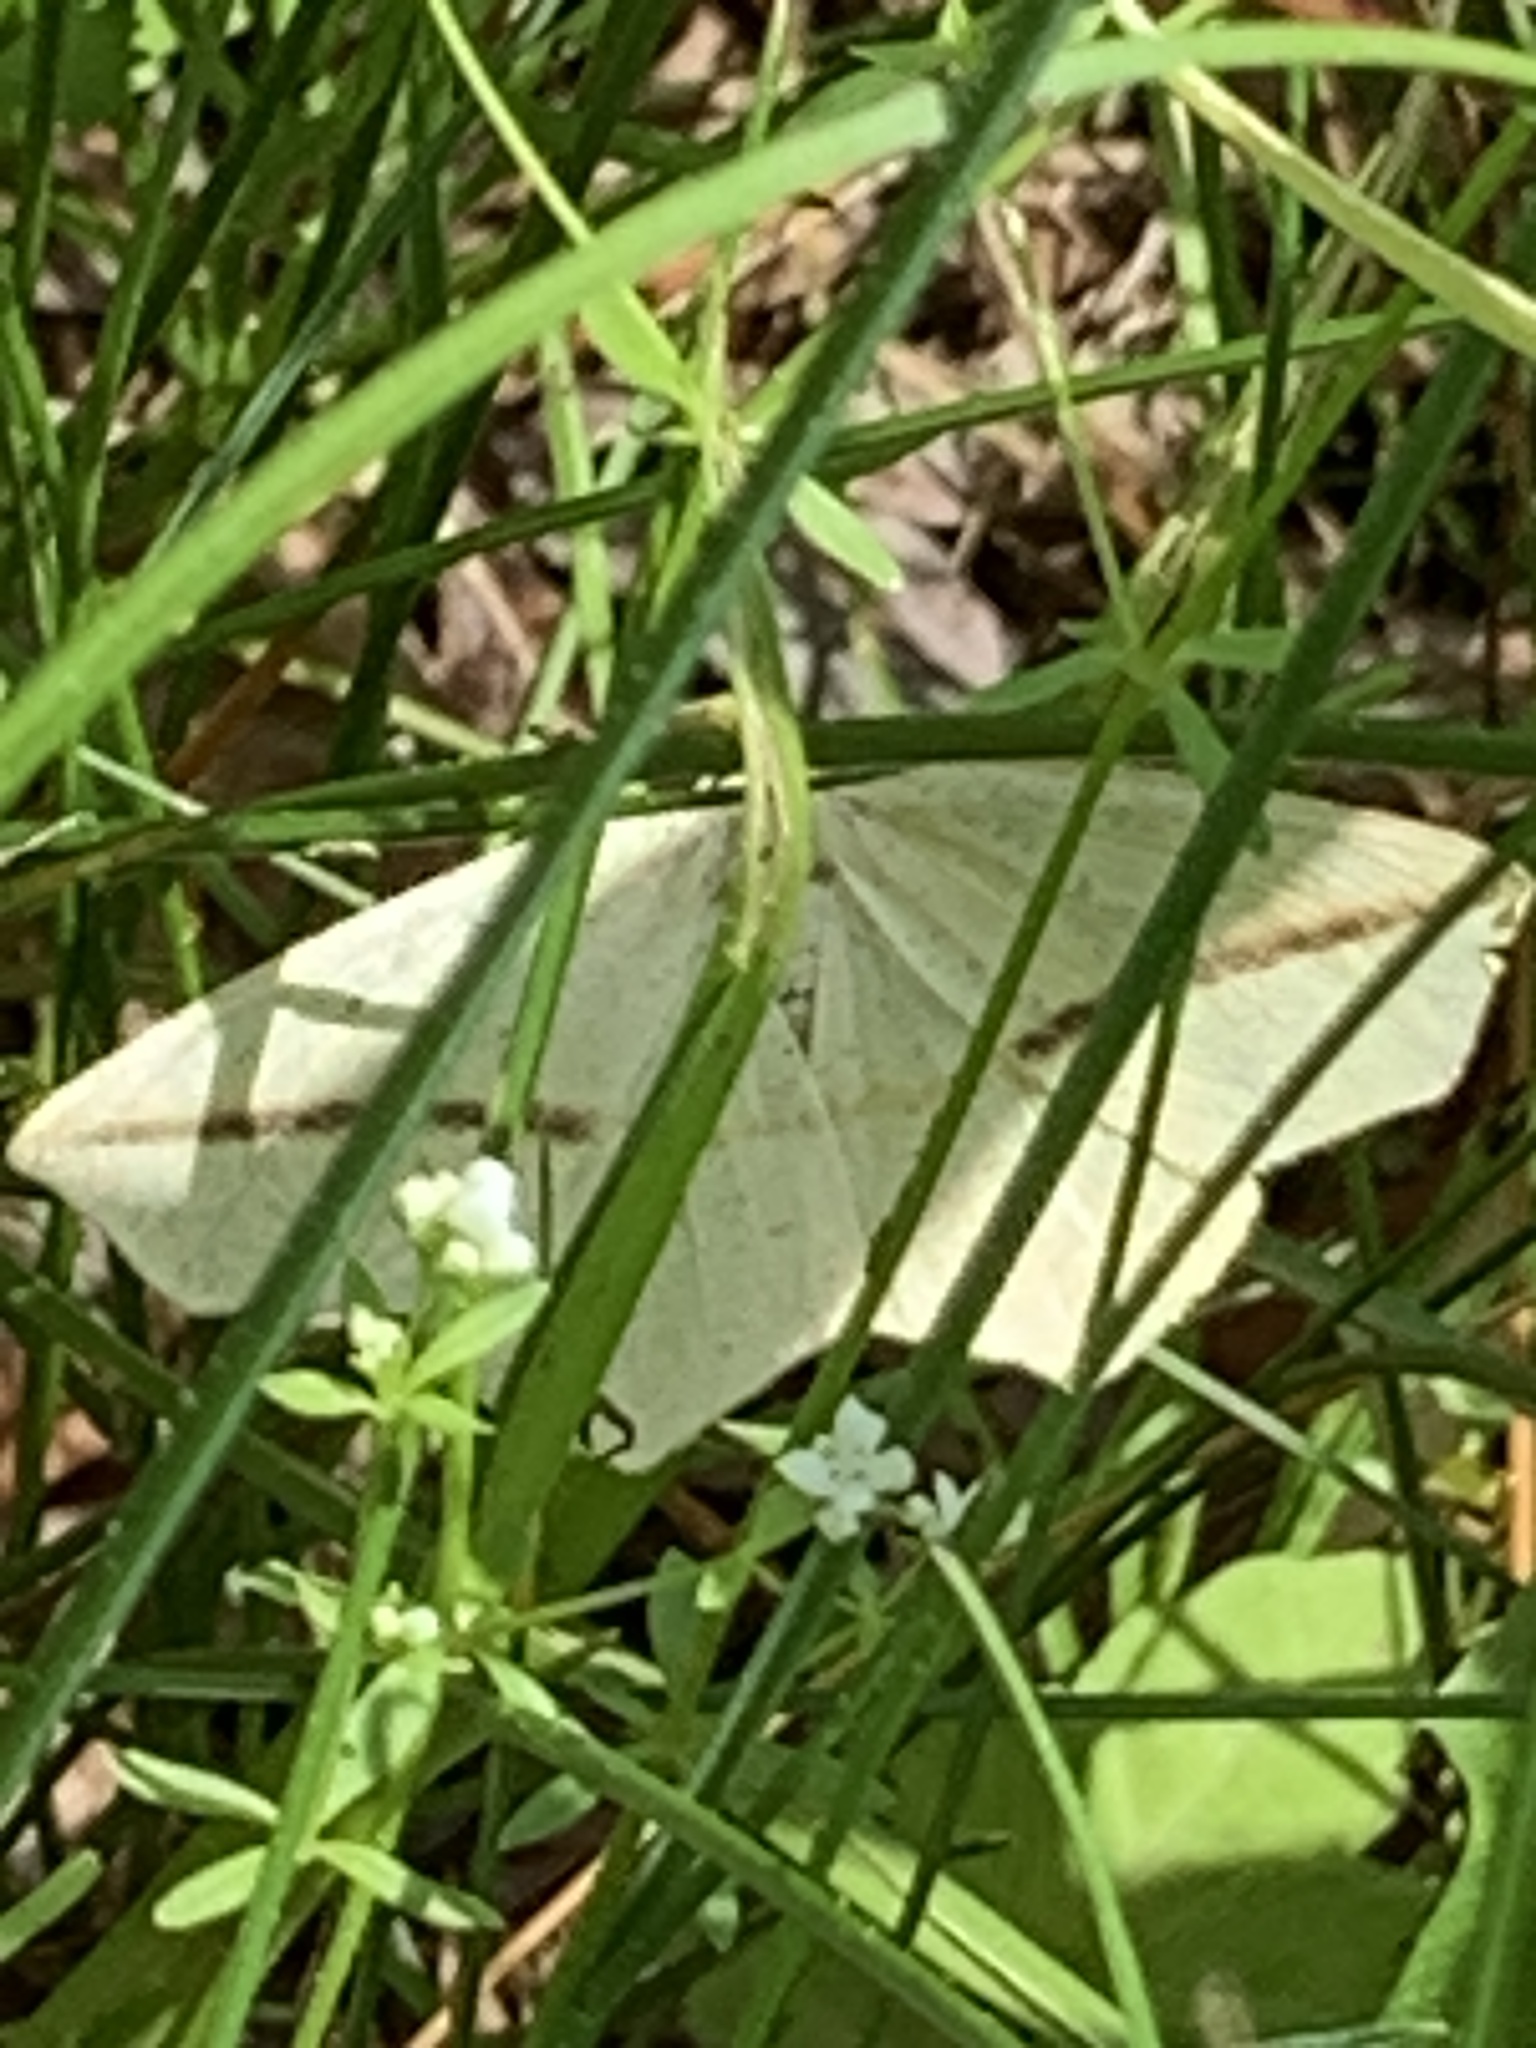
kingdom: Animalia
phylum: Arthropoda
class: Insecta
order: Lepidoptera
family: Geometridae
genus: Tetracis
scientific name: Tetracis crocallata
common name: Yellow slant-line
